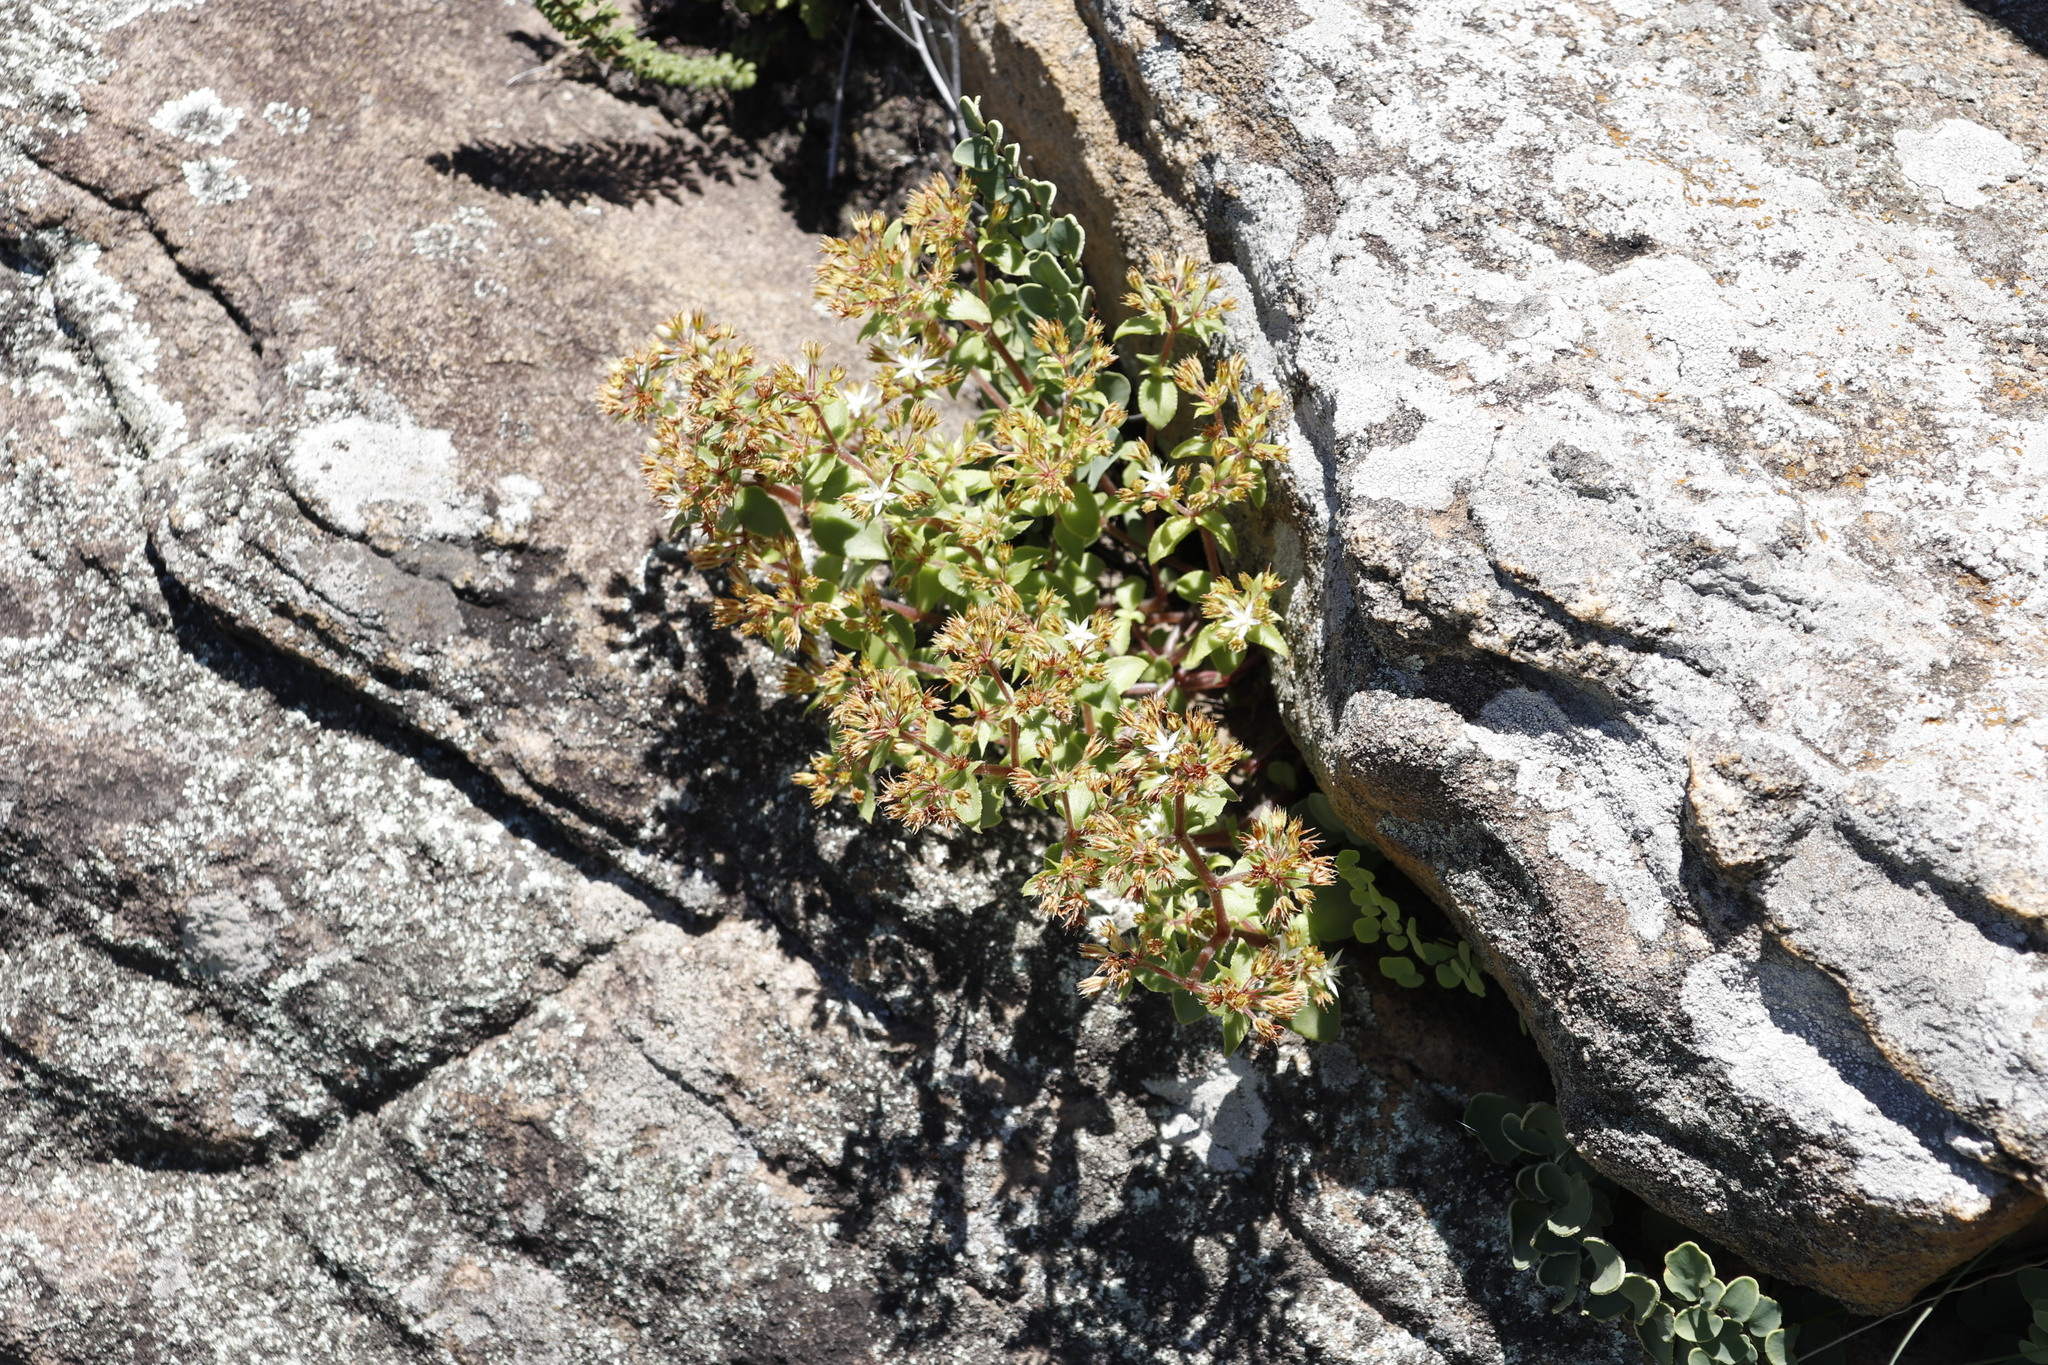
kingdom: Plantae
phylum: Tracheophyta
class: Magnoliopsida
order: Saxifragales
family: Crassulaceae
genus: Crassula
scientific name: Crassula pellucida
